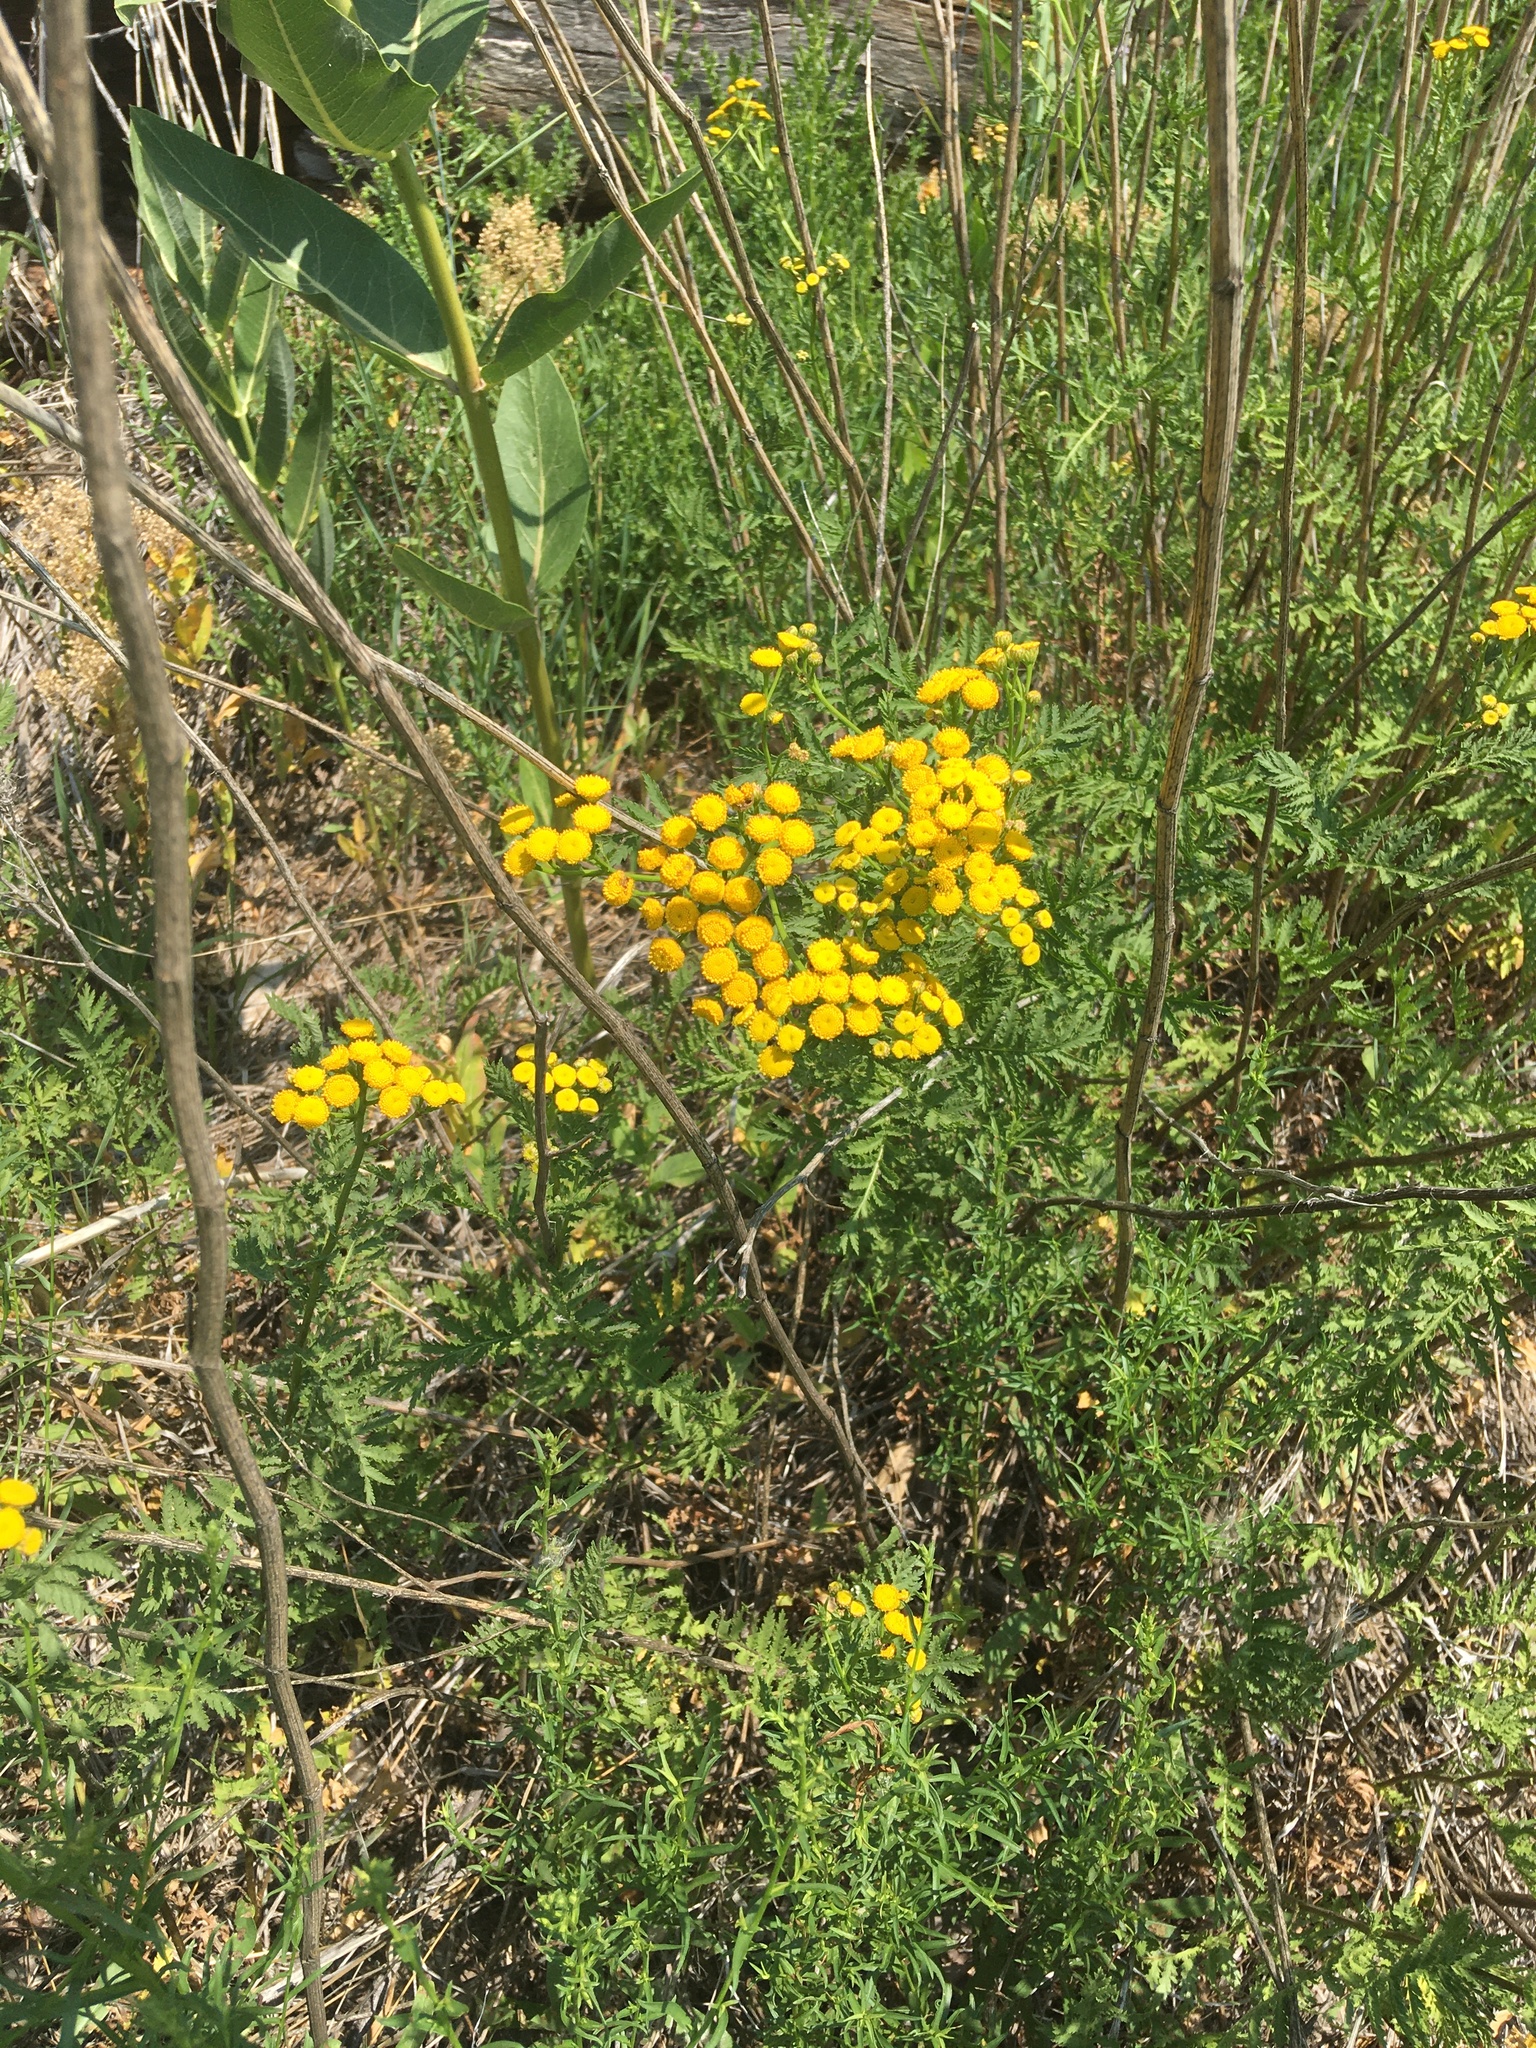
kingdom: Plantae
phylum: Tracheophyta
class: Magnoliopsida
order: Asterales
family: Asteraceae
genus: Tanacetum
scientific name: Tanacetum vulgare
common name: Common tansy
